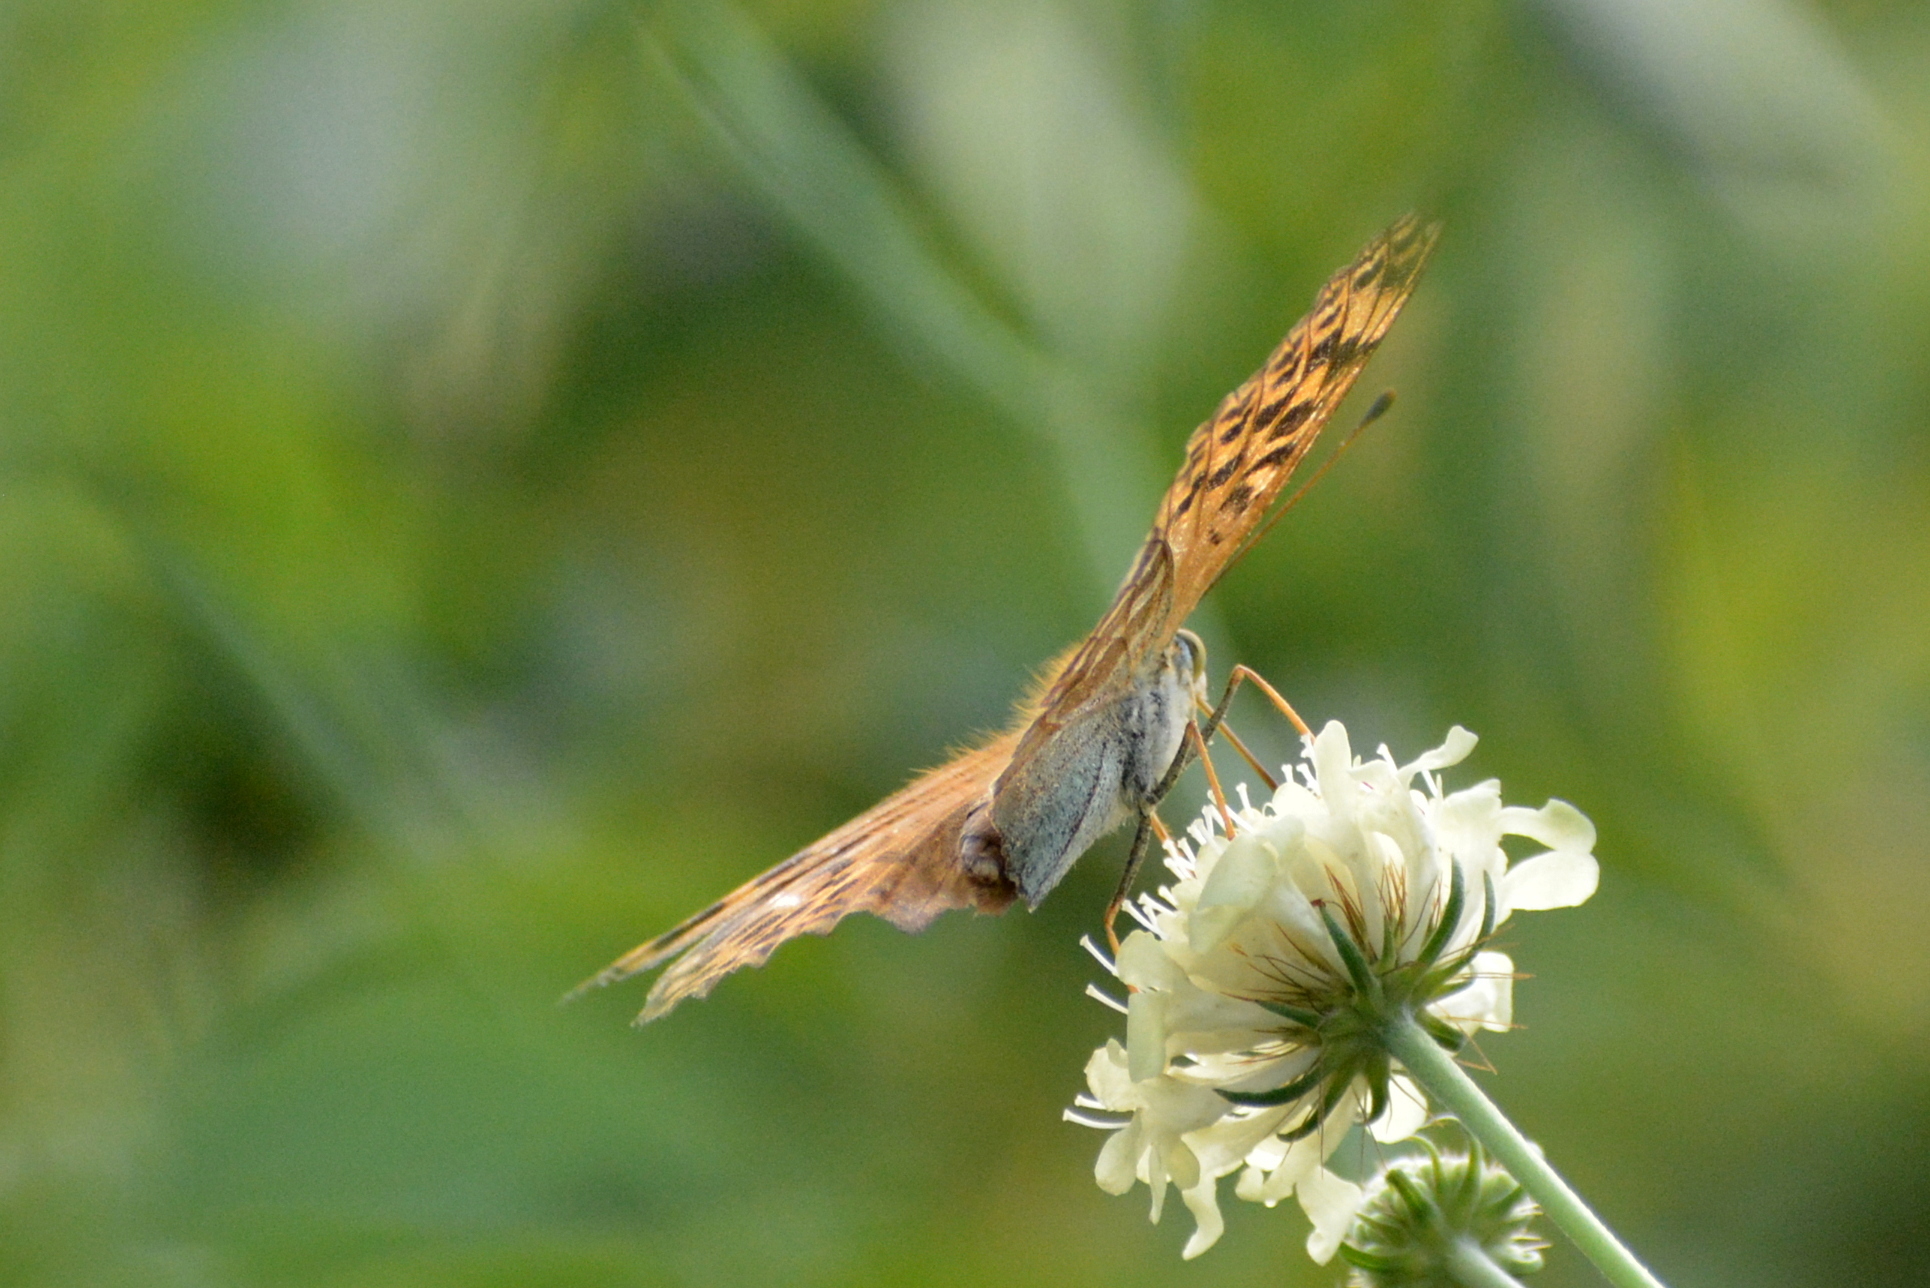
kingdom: Animalia
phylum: Arthropoda
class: Insecta
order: Lepidoptera
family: Nymphalidae
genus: Argynnis
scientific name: Argynnis paphia
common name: Silver-washed fritillary
